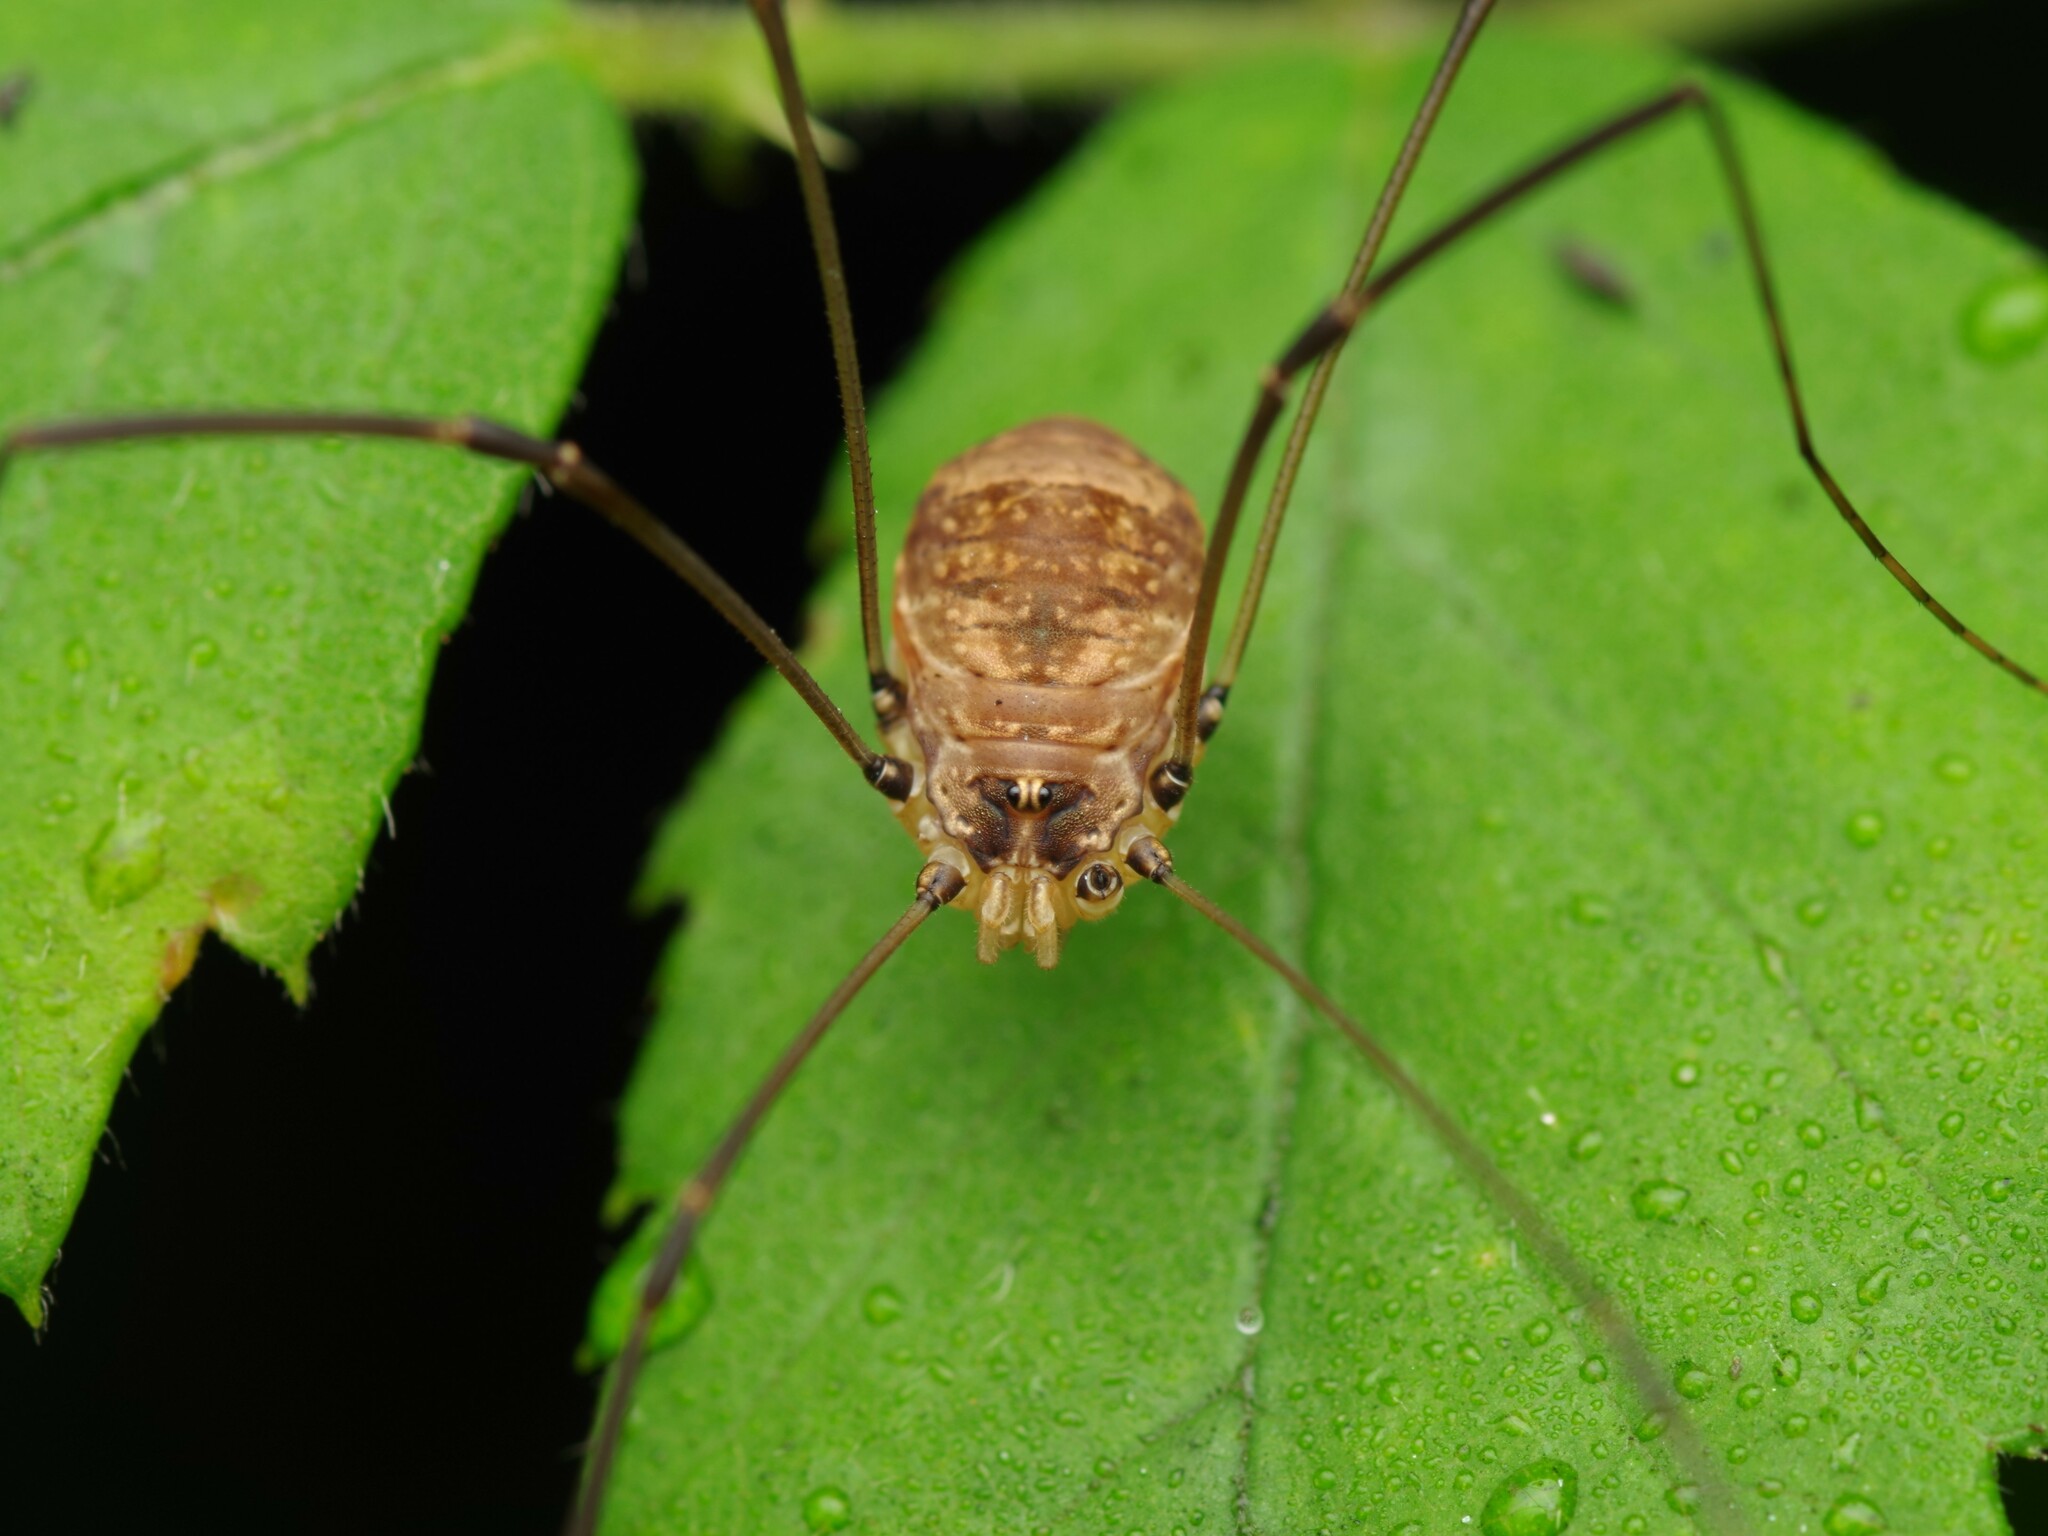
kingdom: Animalia
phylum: Arthropoda
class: Arachnida
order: Opiliones
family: Sclerosomatidae
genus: Leiobunum
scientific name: Leiobunum blackwalli
